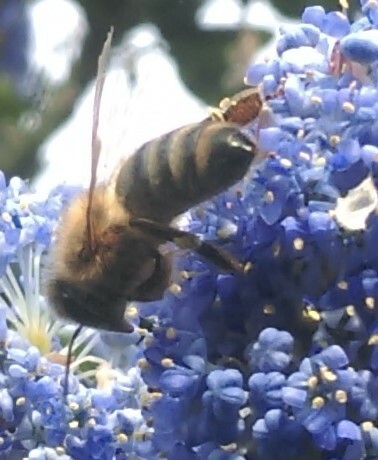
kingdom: Animalia
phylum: Arthropoda
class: Insecta
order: Hymenoptera
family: Apidae
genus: Apis
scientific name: Apis mellifera
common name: Honey bee
